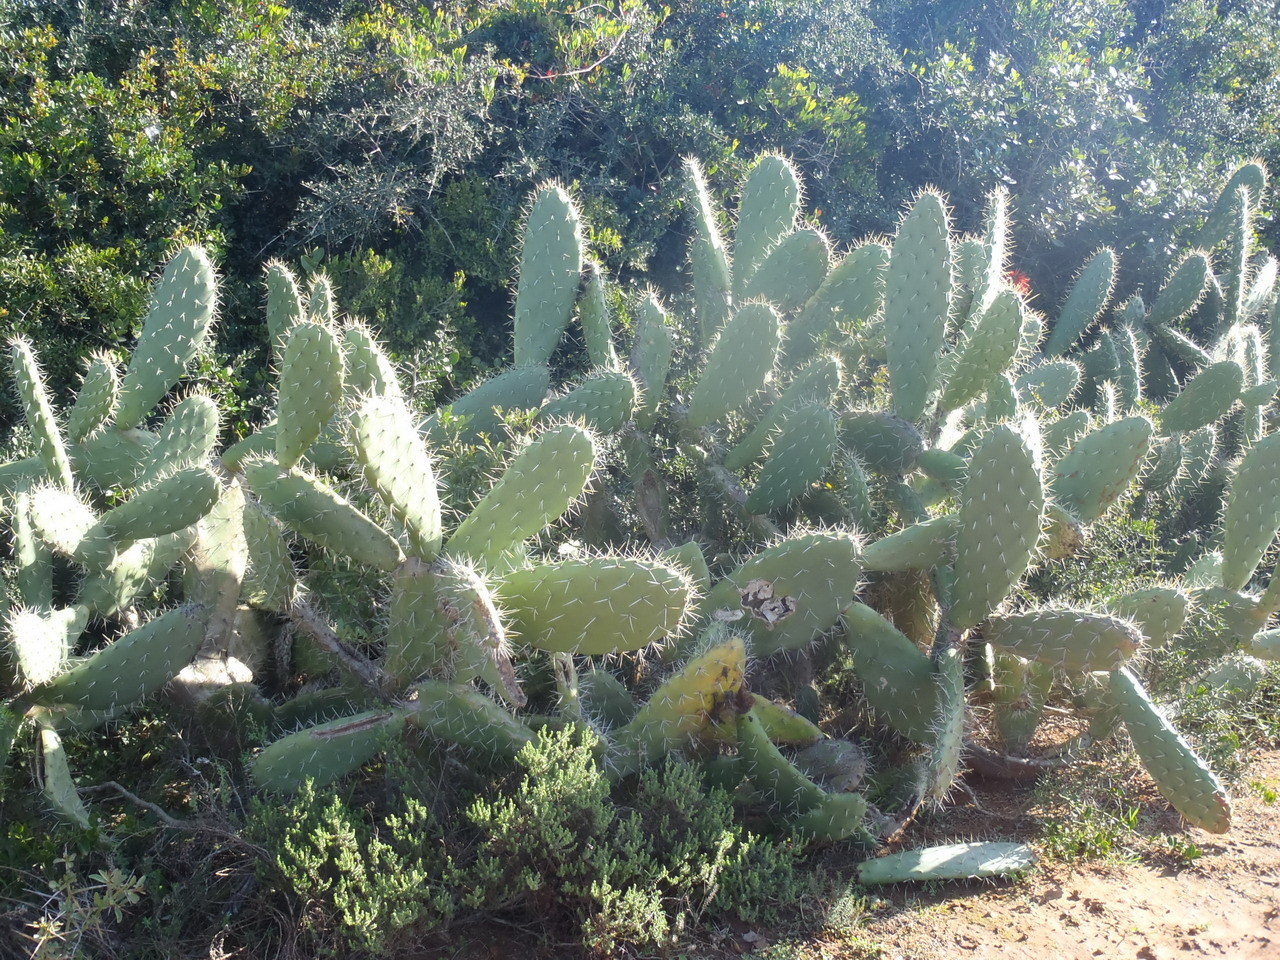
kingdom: Plantae
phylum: Tracheophyta
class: Magnoliopsida
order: Caryophyllales
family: Cactaceae
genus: Opuntia
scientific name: Opuntia ficus-indica
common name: Barbary fig
